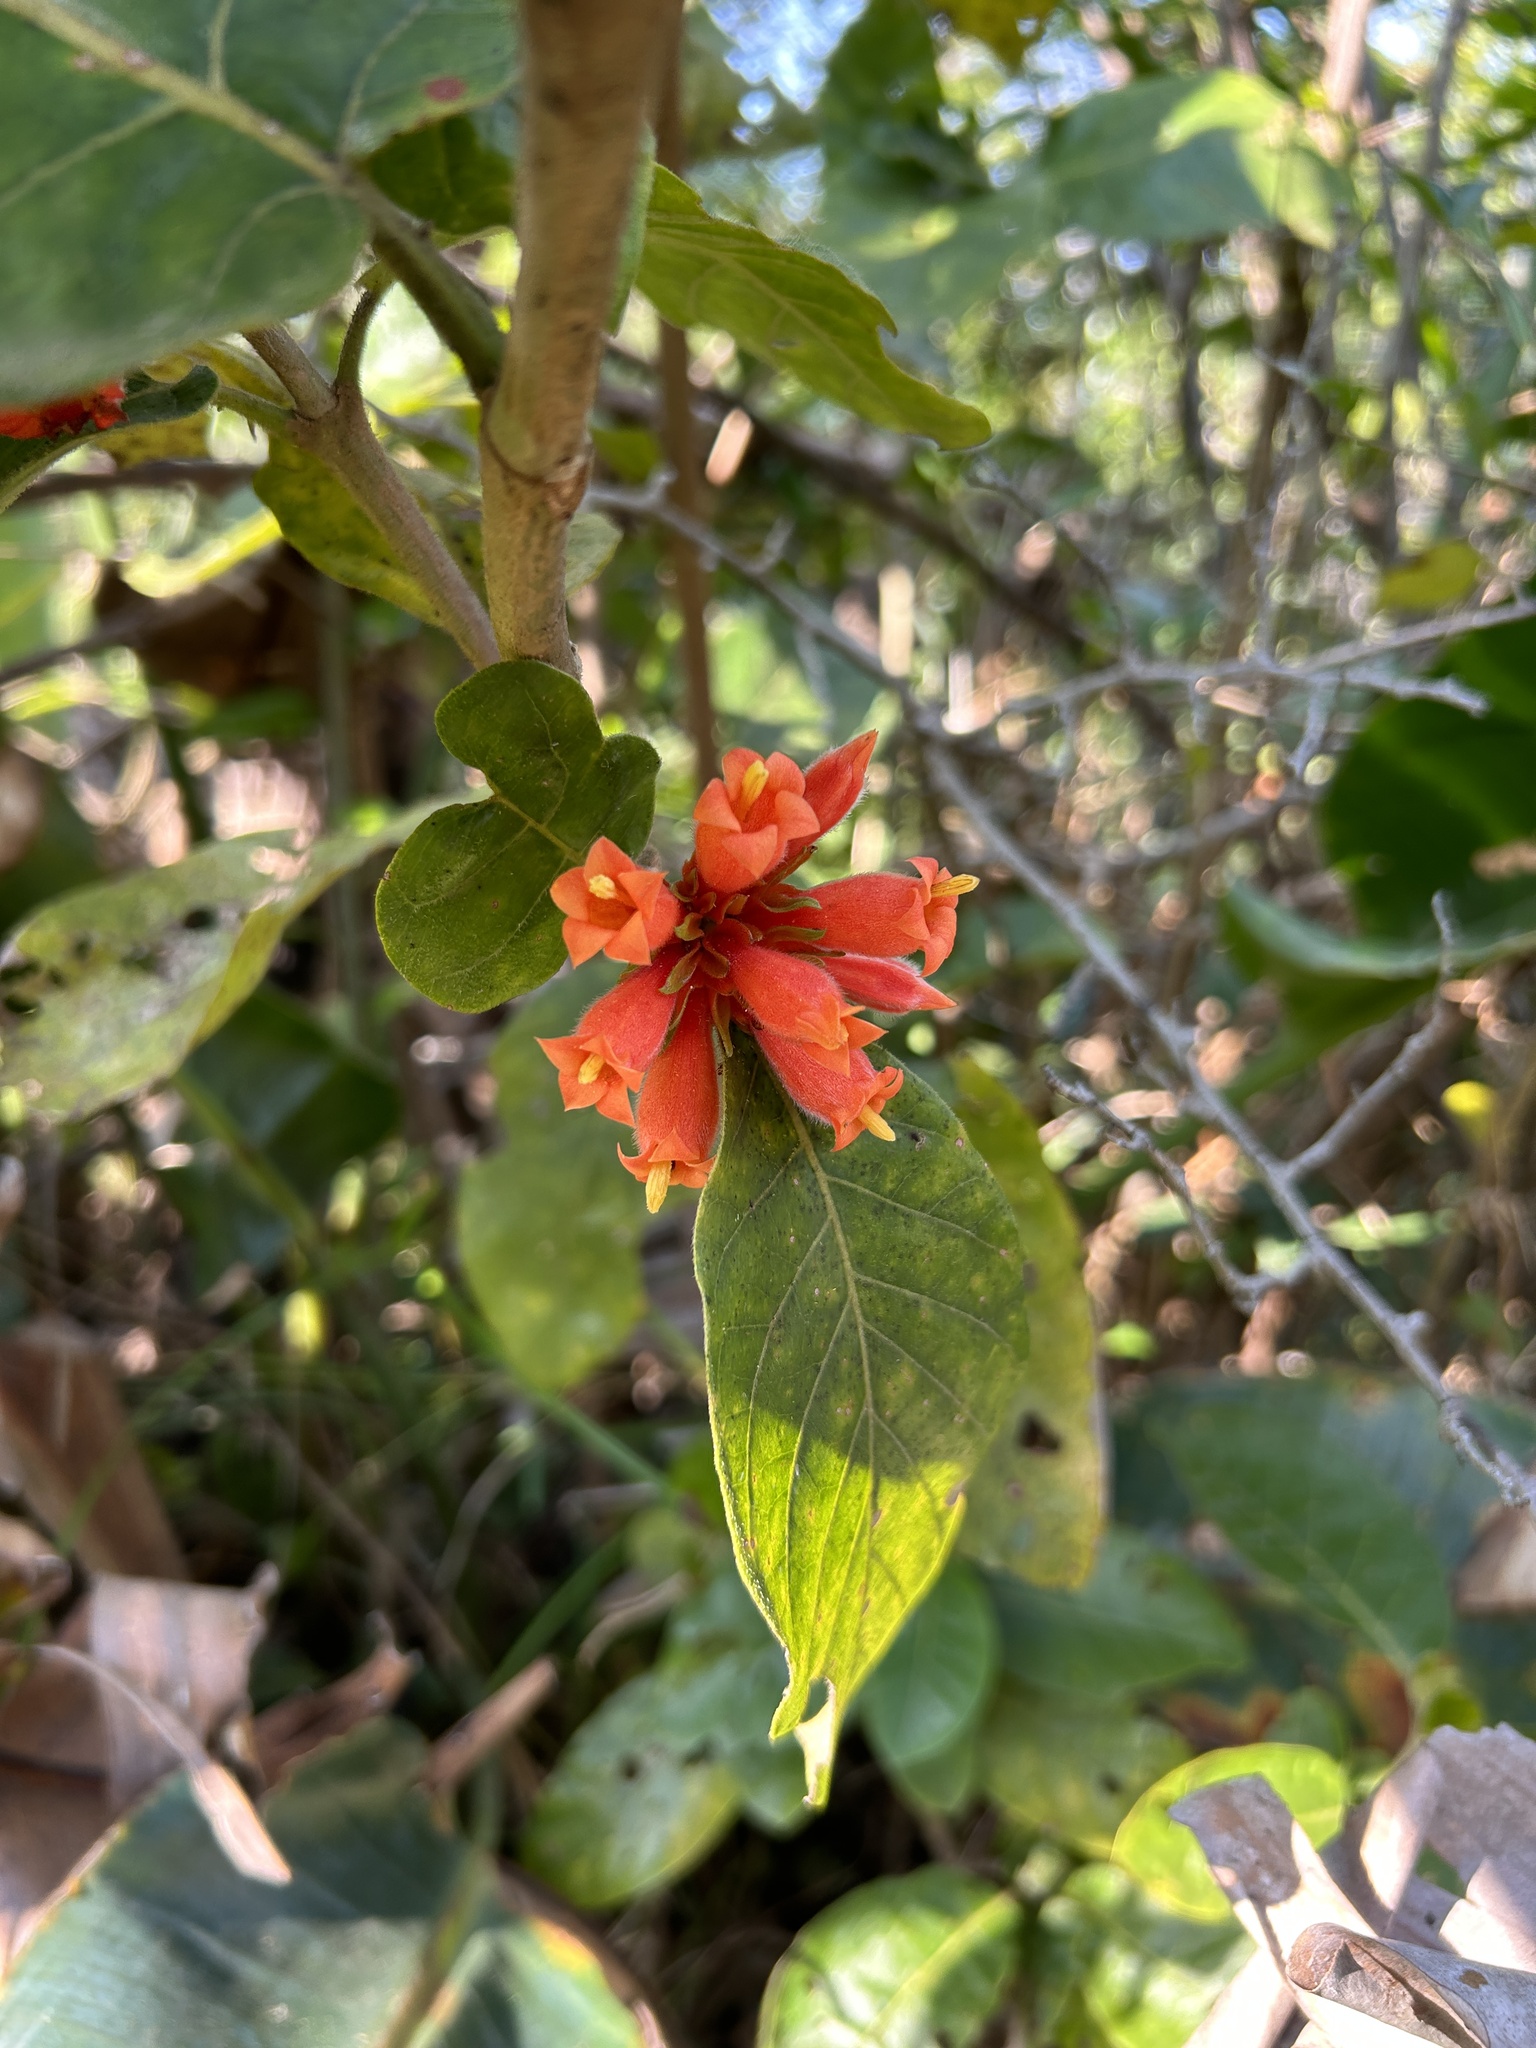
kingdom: Plantae
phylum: Tracheophyta
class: Magnoliopsida
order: Gentianales
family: Rubiaceae
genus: Burchellia
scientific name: Burchellia bubalina
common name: Wild pomegranate
